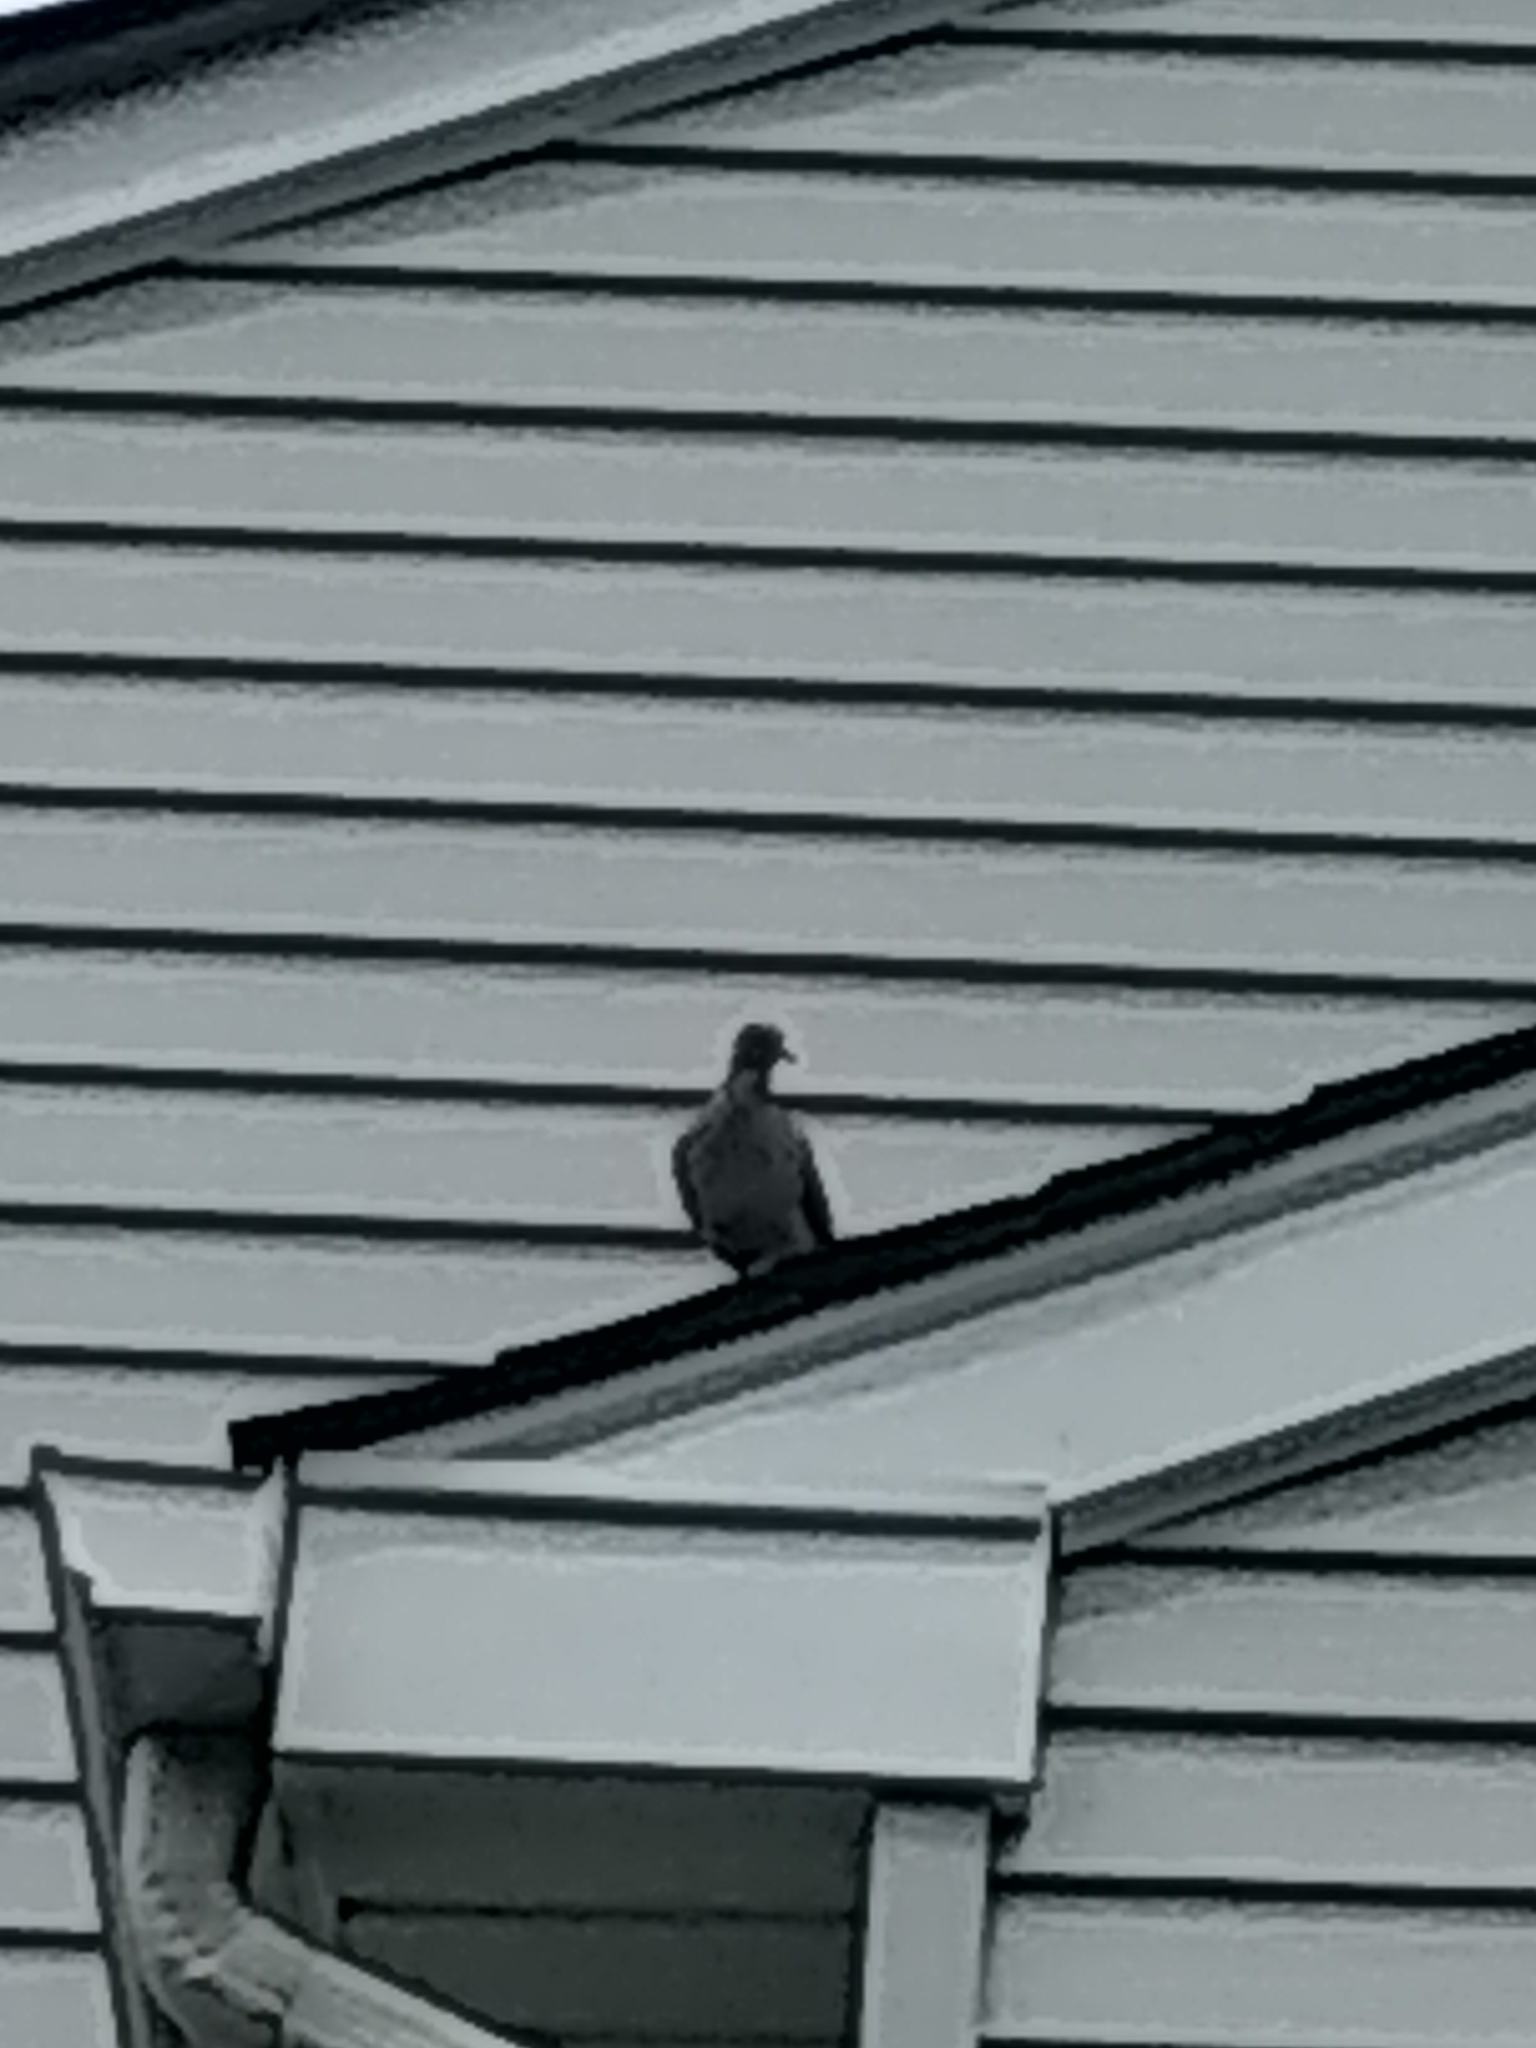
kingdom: Animalia
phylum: Chordata
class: Aves
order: Columbiformes
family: Columbidae
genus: Zenaida
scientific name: Zenaida macroura
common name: Mourning dove
